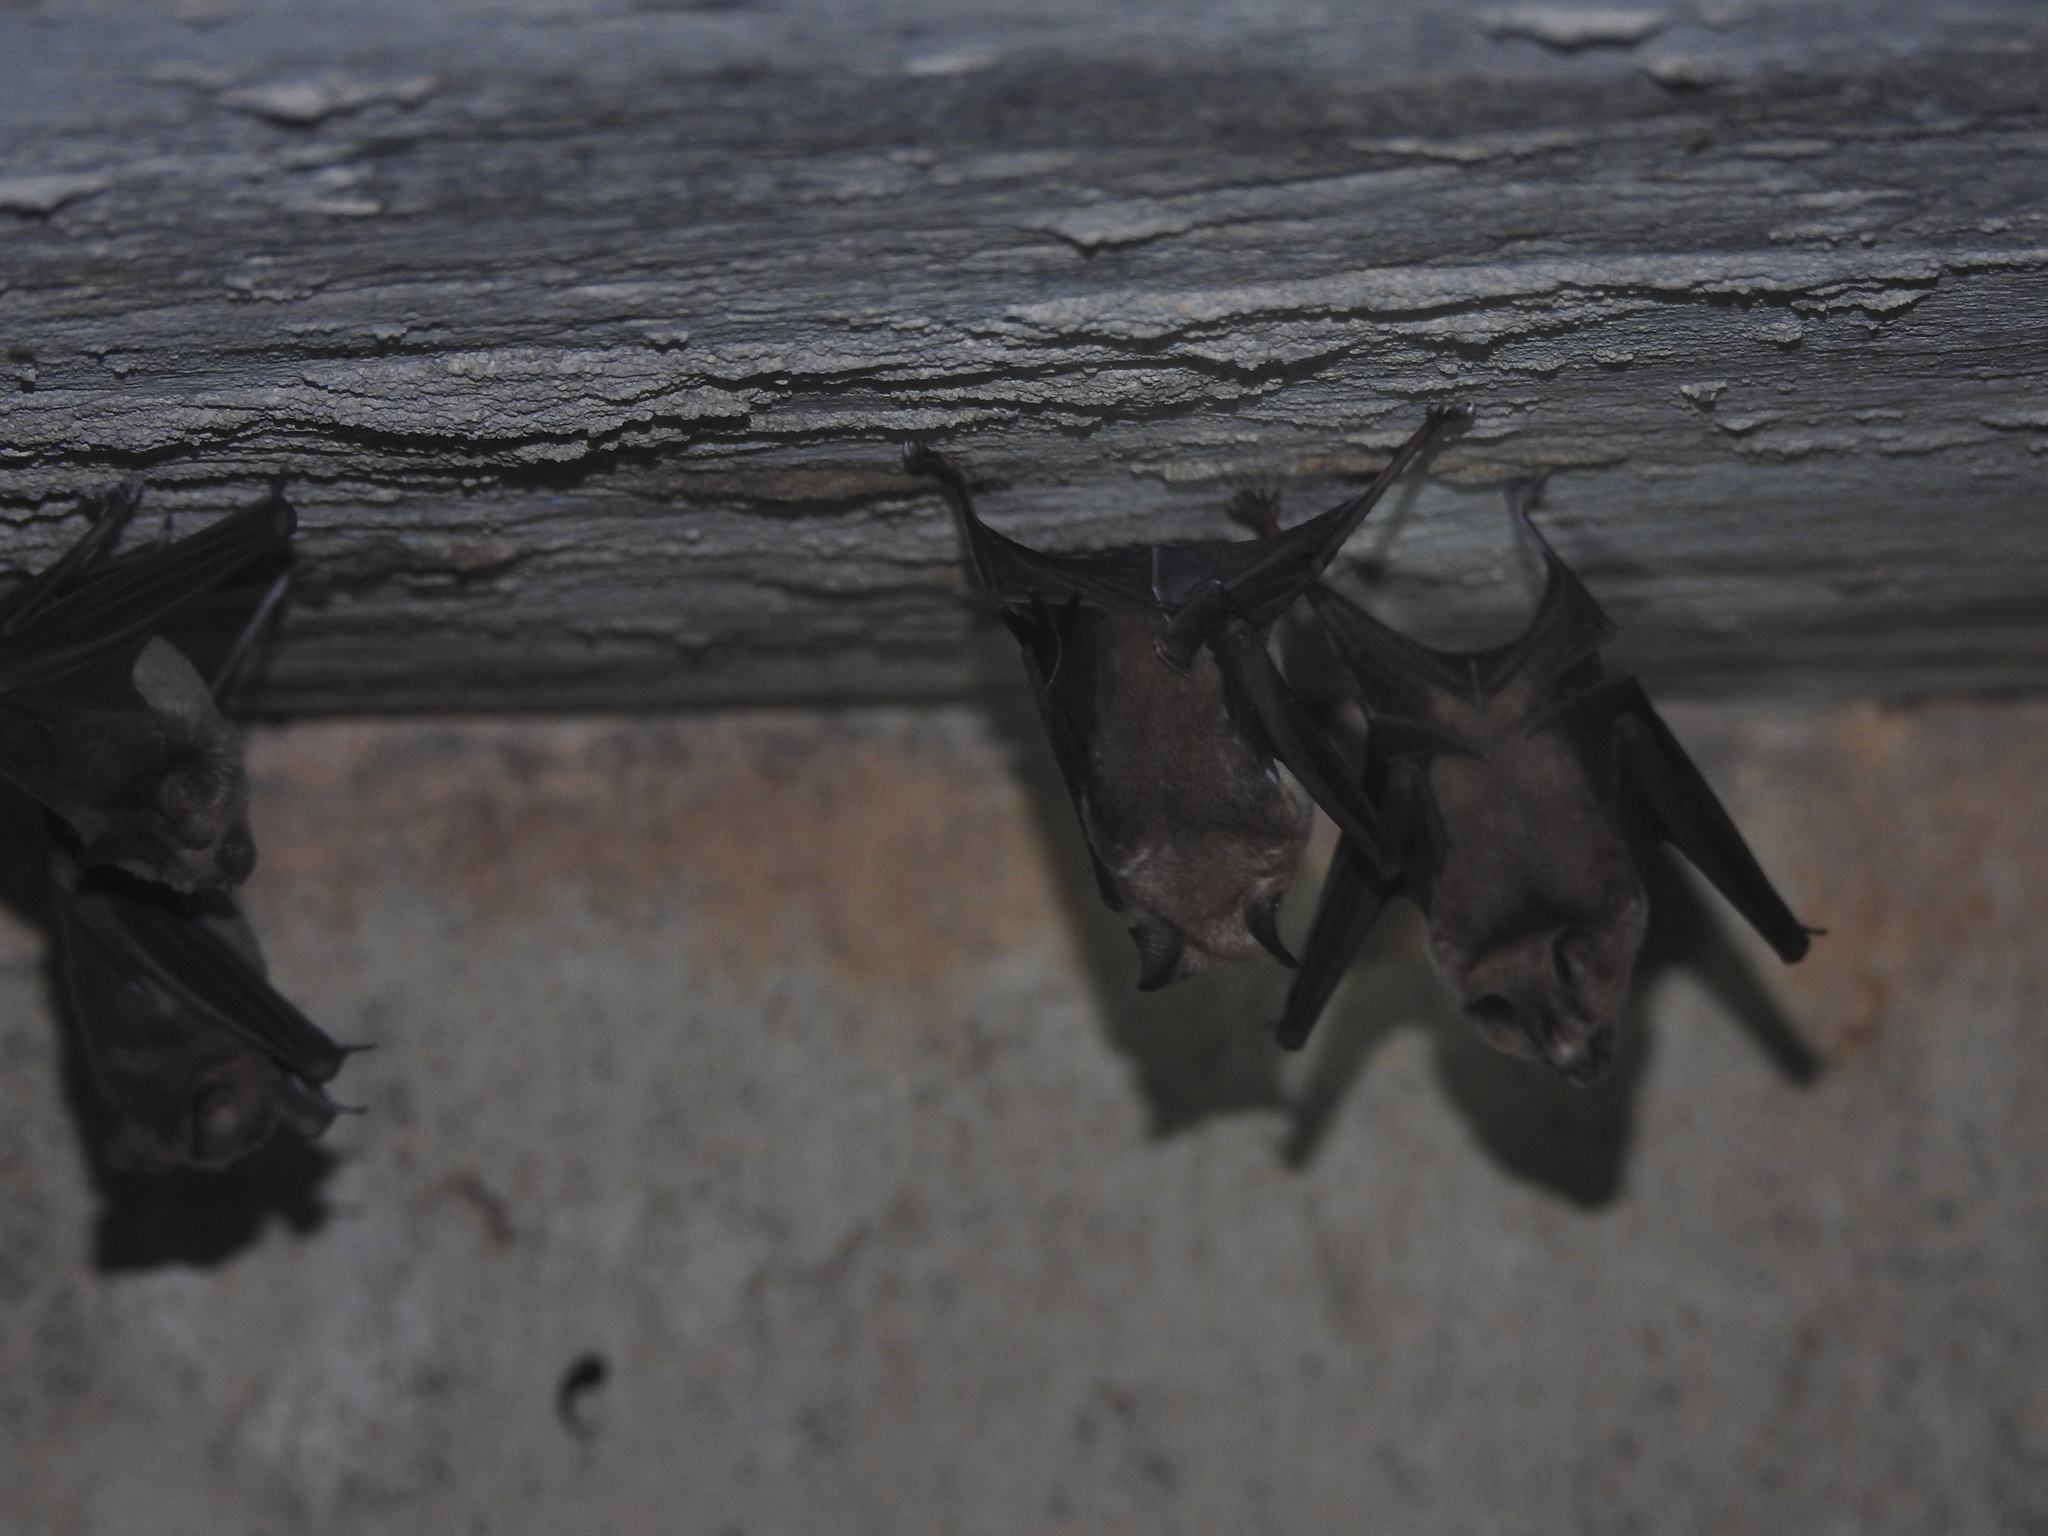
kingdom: Animalia
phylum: Chordata
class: Mammalia
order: Chiroptera
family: Hipposideridae
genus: Hipposideros
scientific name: Hipposideros speoris
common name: Schneider's roundleaf bat
